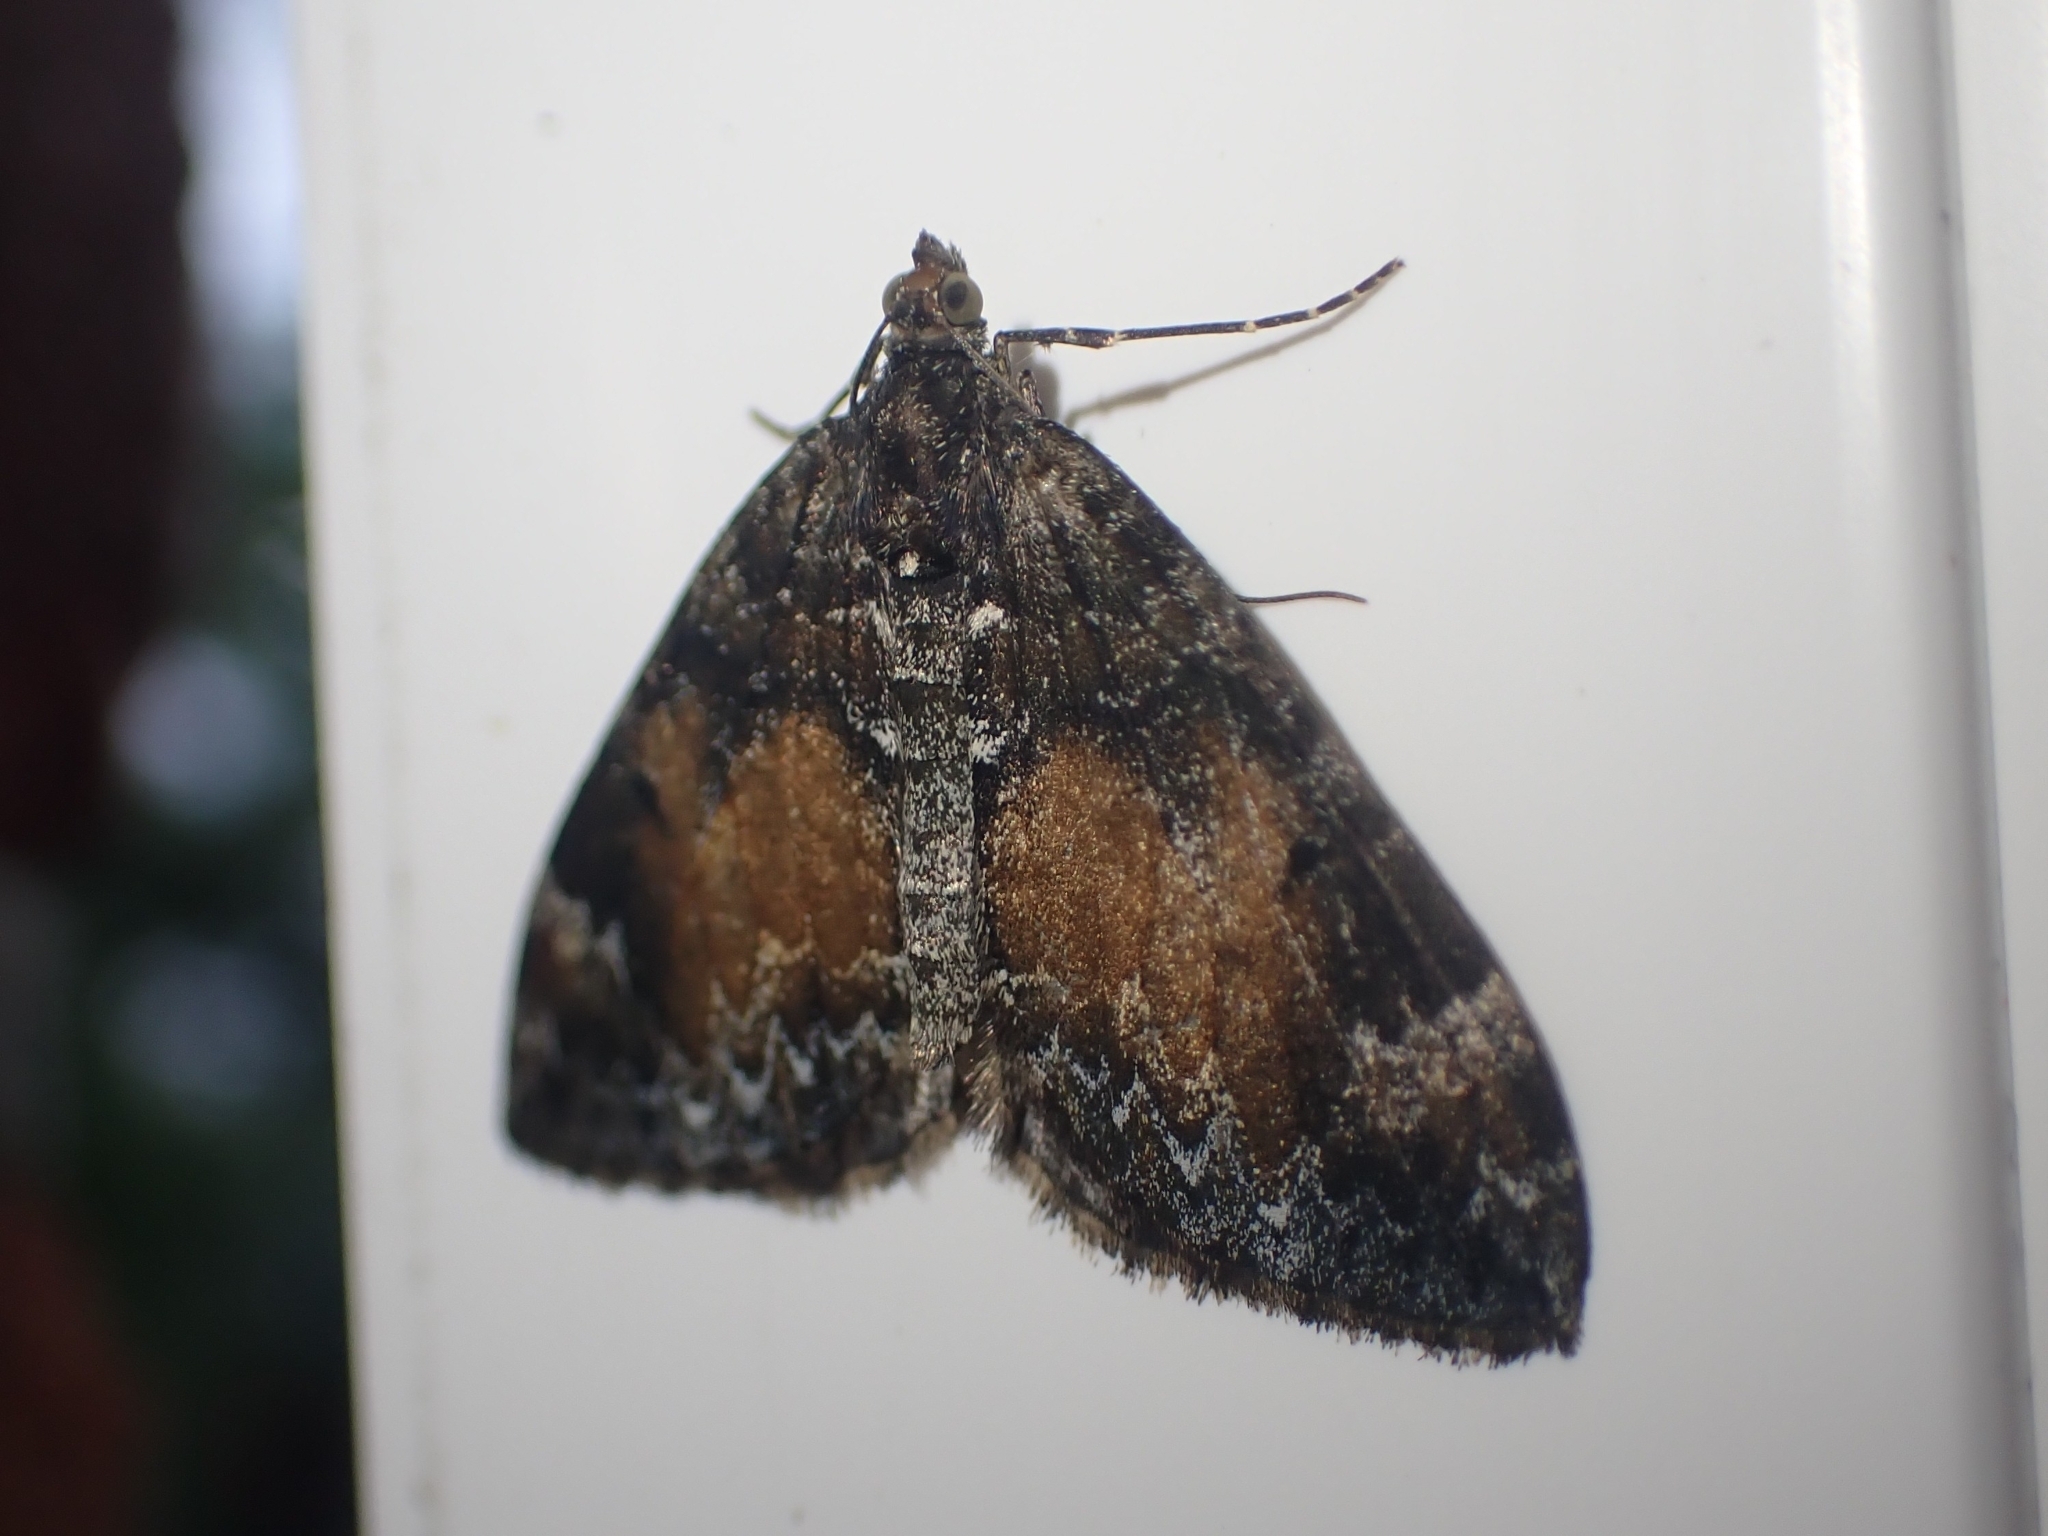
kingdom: Animalia
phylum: Arthropoda
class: Insecta
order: Lepidoptera
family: Geometridae
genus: Dysstroma
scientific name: Dysstroma truncata
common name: Common marbled carpet
